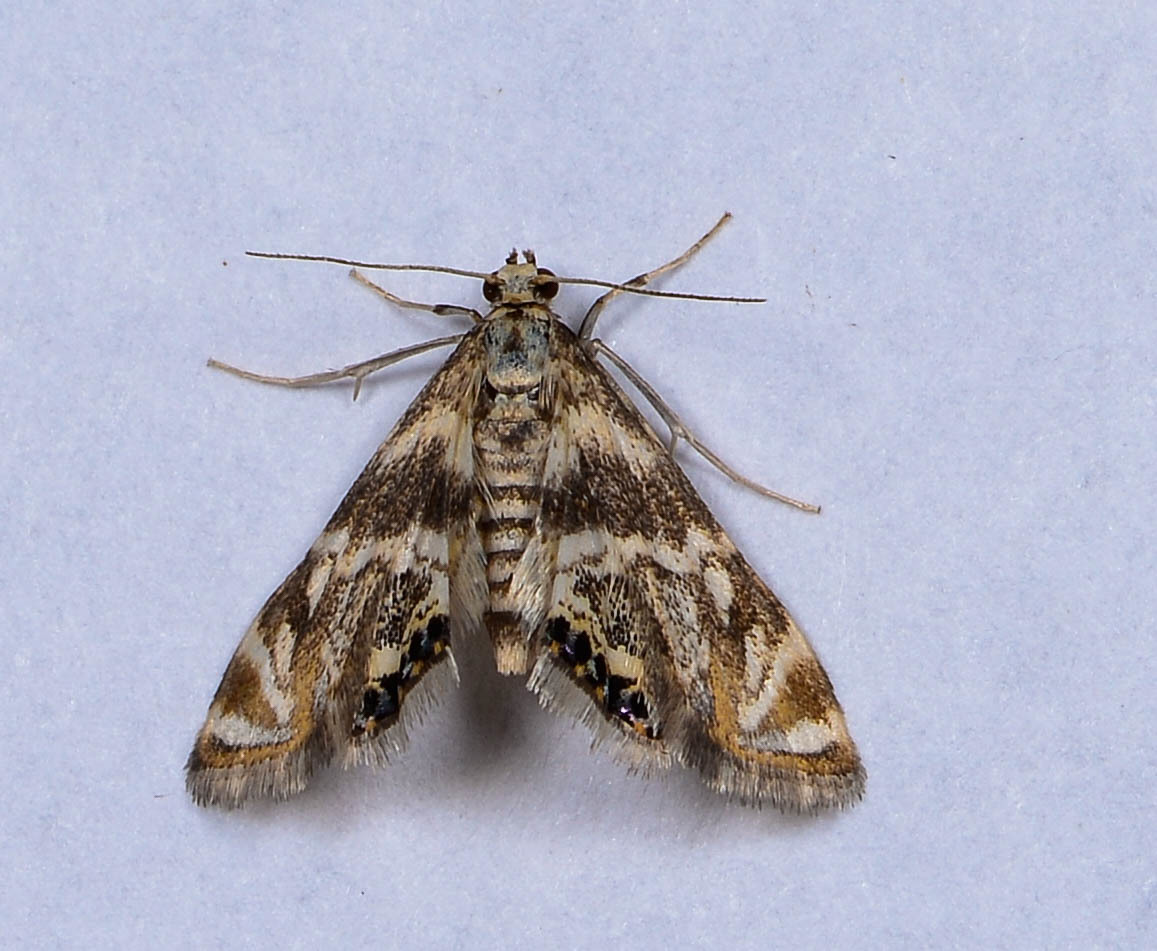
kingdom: Animalia
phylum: Arthropoda
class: Insecta
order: Lepidoptera
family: Crambidae
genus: Petrophila
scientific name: Petrophila canadensis
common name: Canadian petrophila
